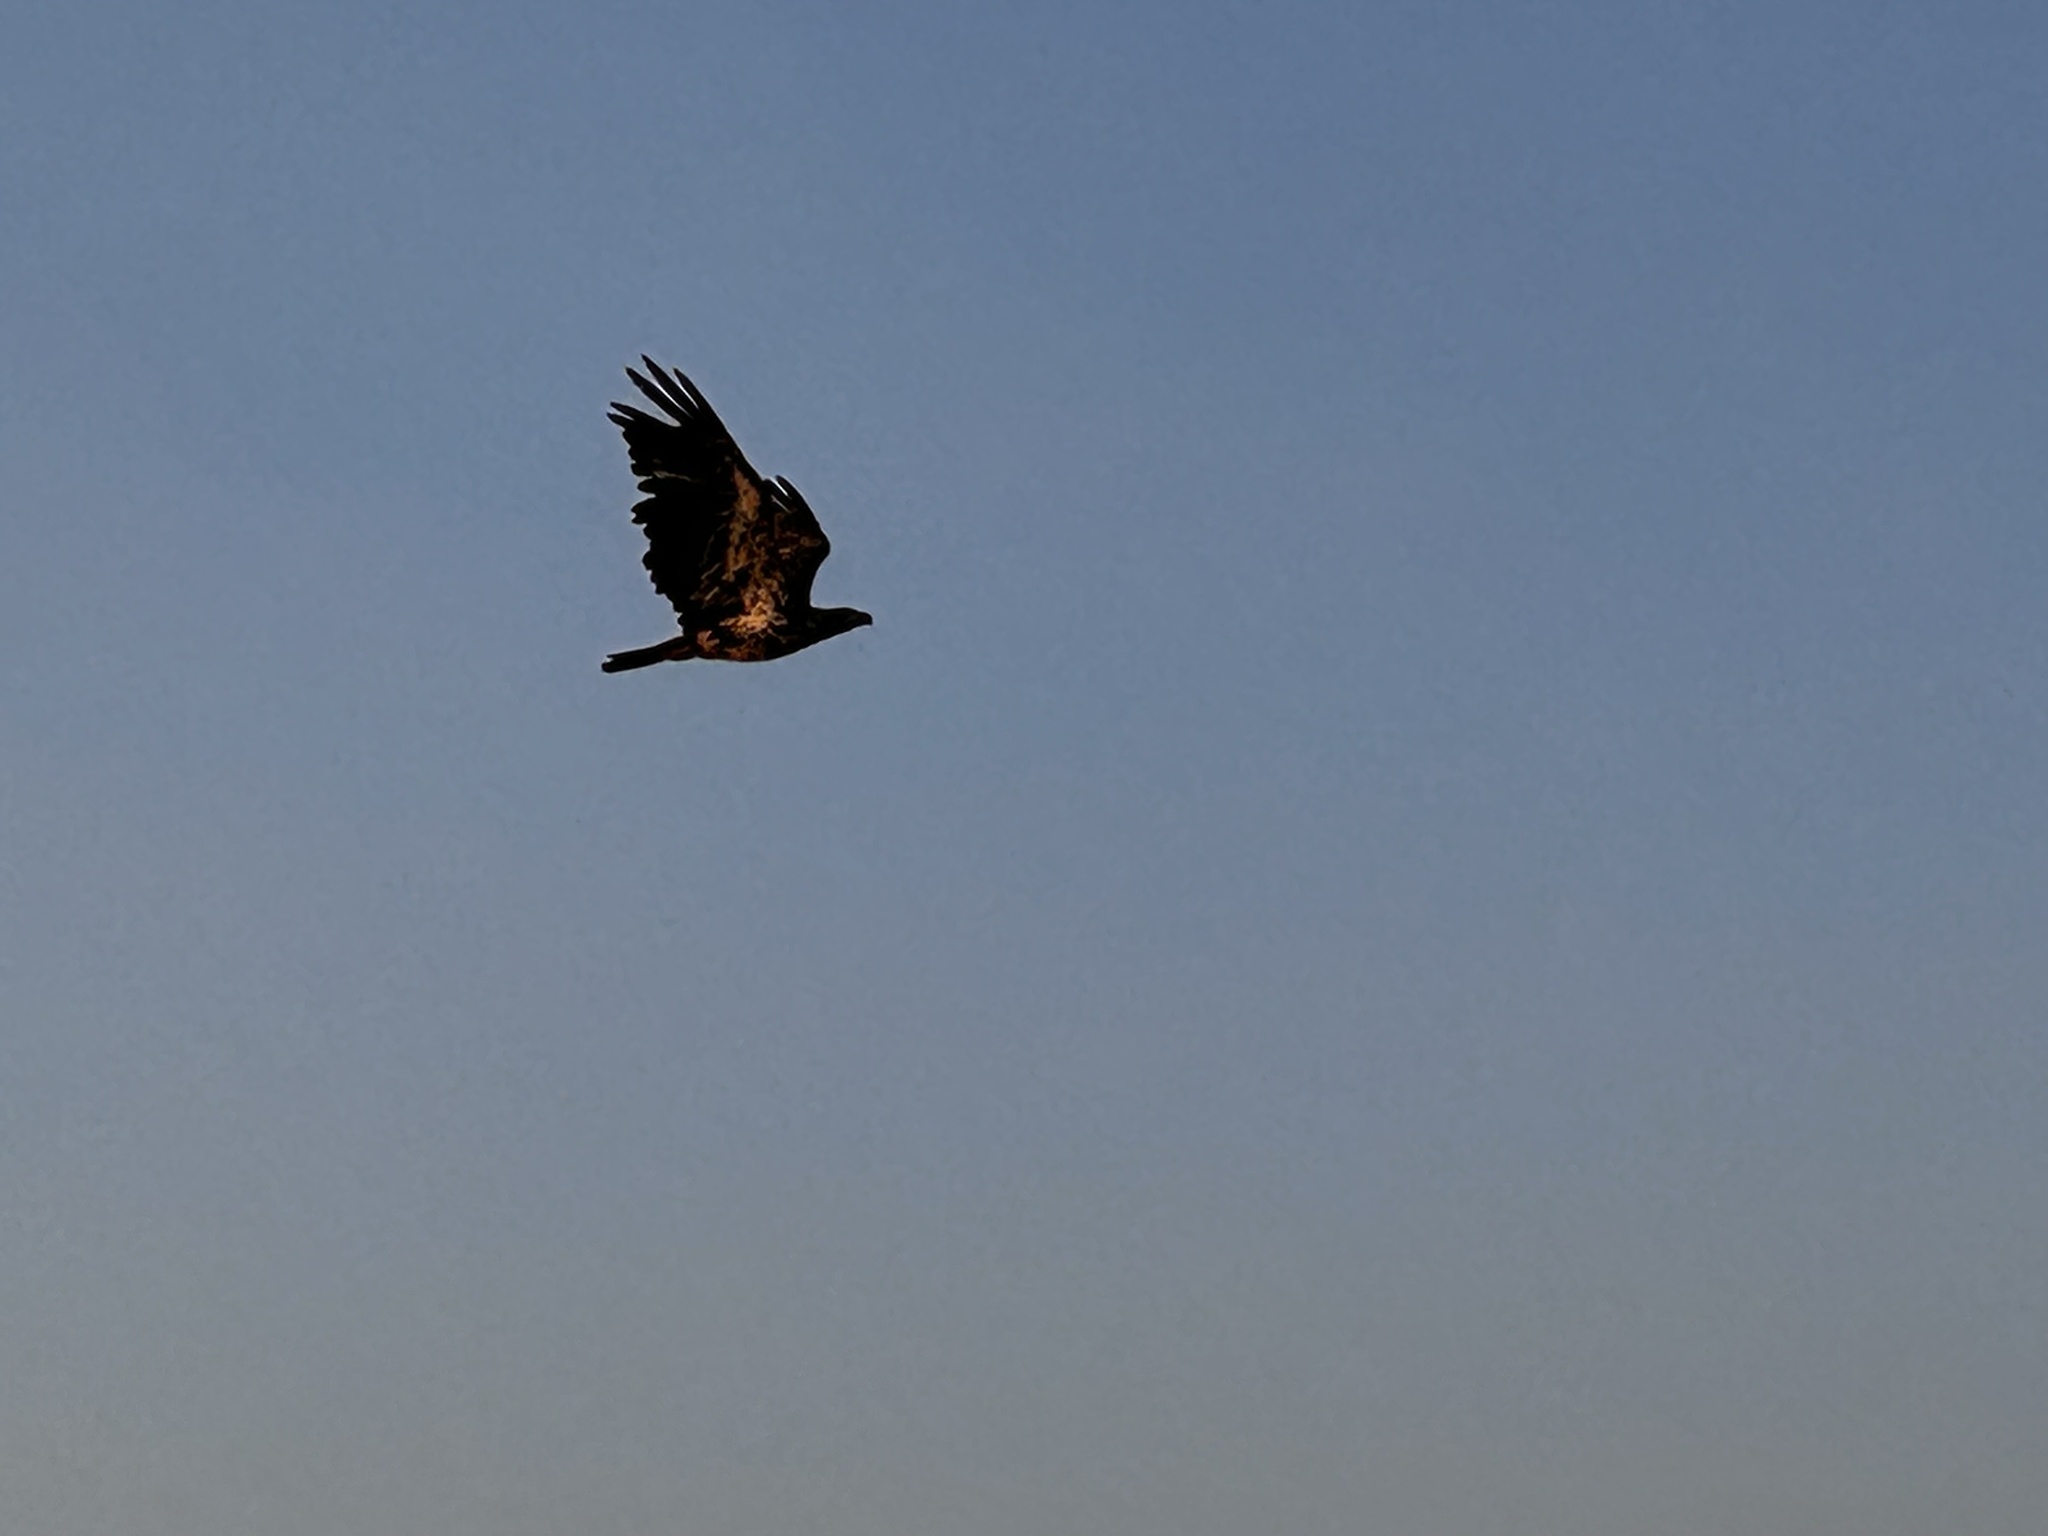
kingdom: Animalia
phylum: Chordata
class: Aves
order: Accipitriformes
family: Accipitridae
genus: Haliaeetus
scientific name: Haliaeetus leucocephalus
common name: Bald eagle
